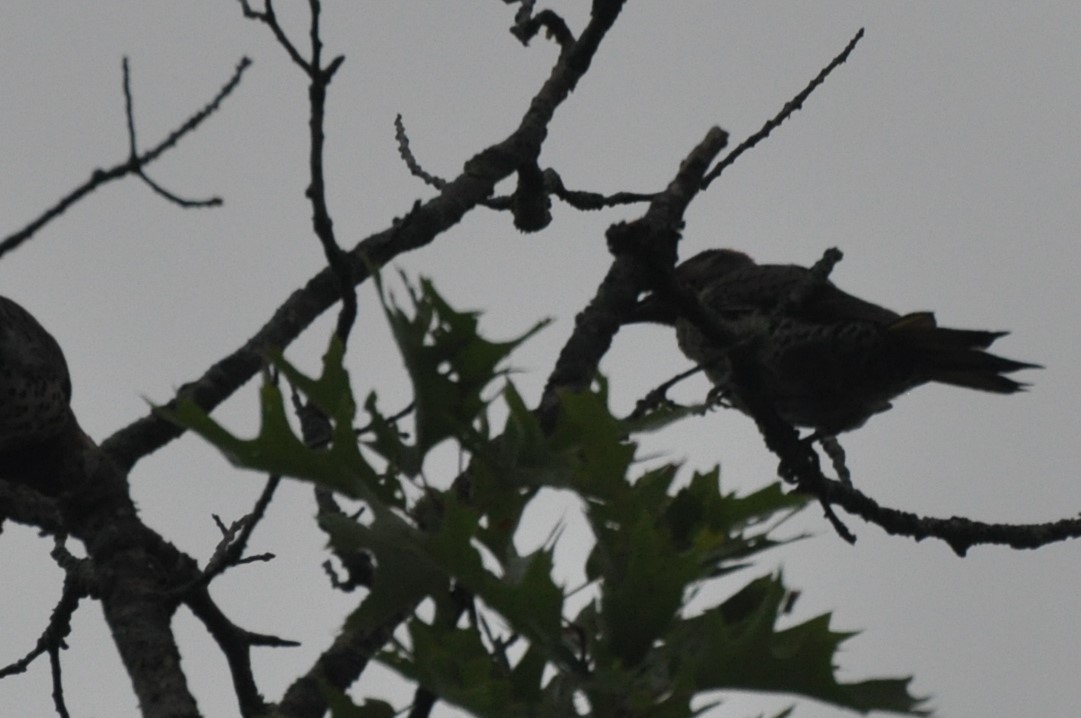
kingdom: Animalia
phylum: Chordata
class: Aves
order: Piciformes
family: Picidae
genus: Colaptes
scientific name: Colaptes auratus
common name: Northern flicker
